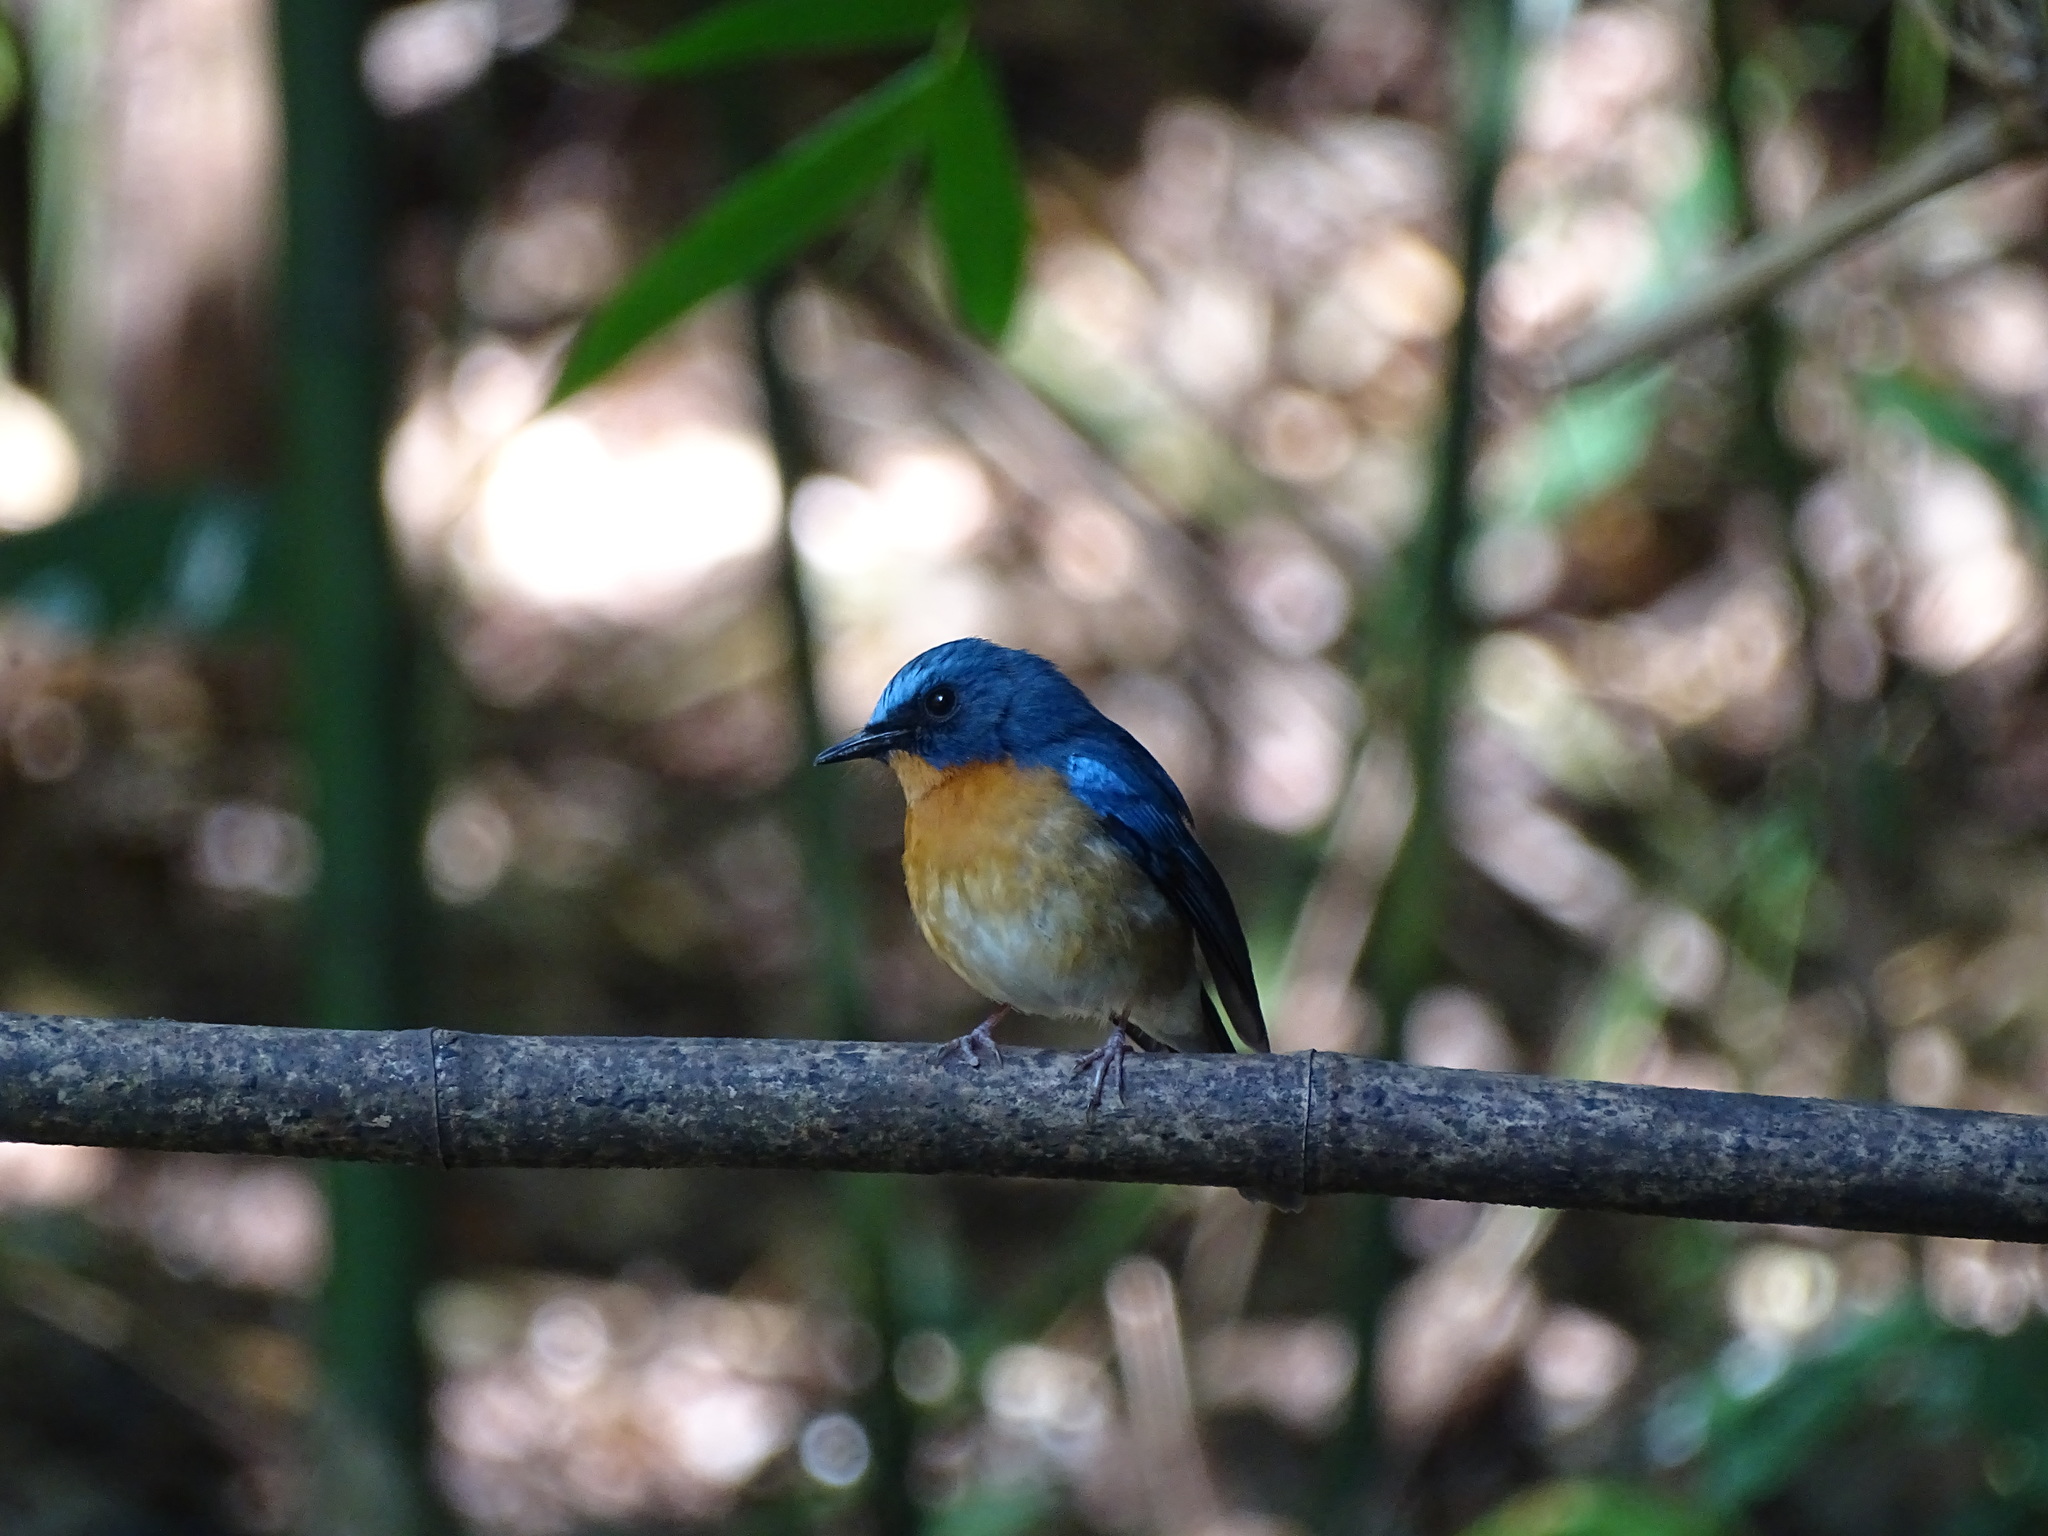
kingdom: Animalia
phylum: Chordata
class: Aves
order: Passeriformes
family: Muscicapidae
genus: Cyornis
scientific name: Cyornis whitei
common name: Hill blue flycatcher
